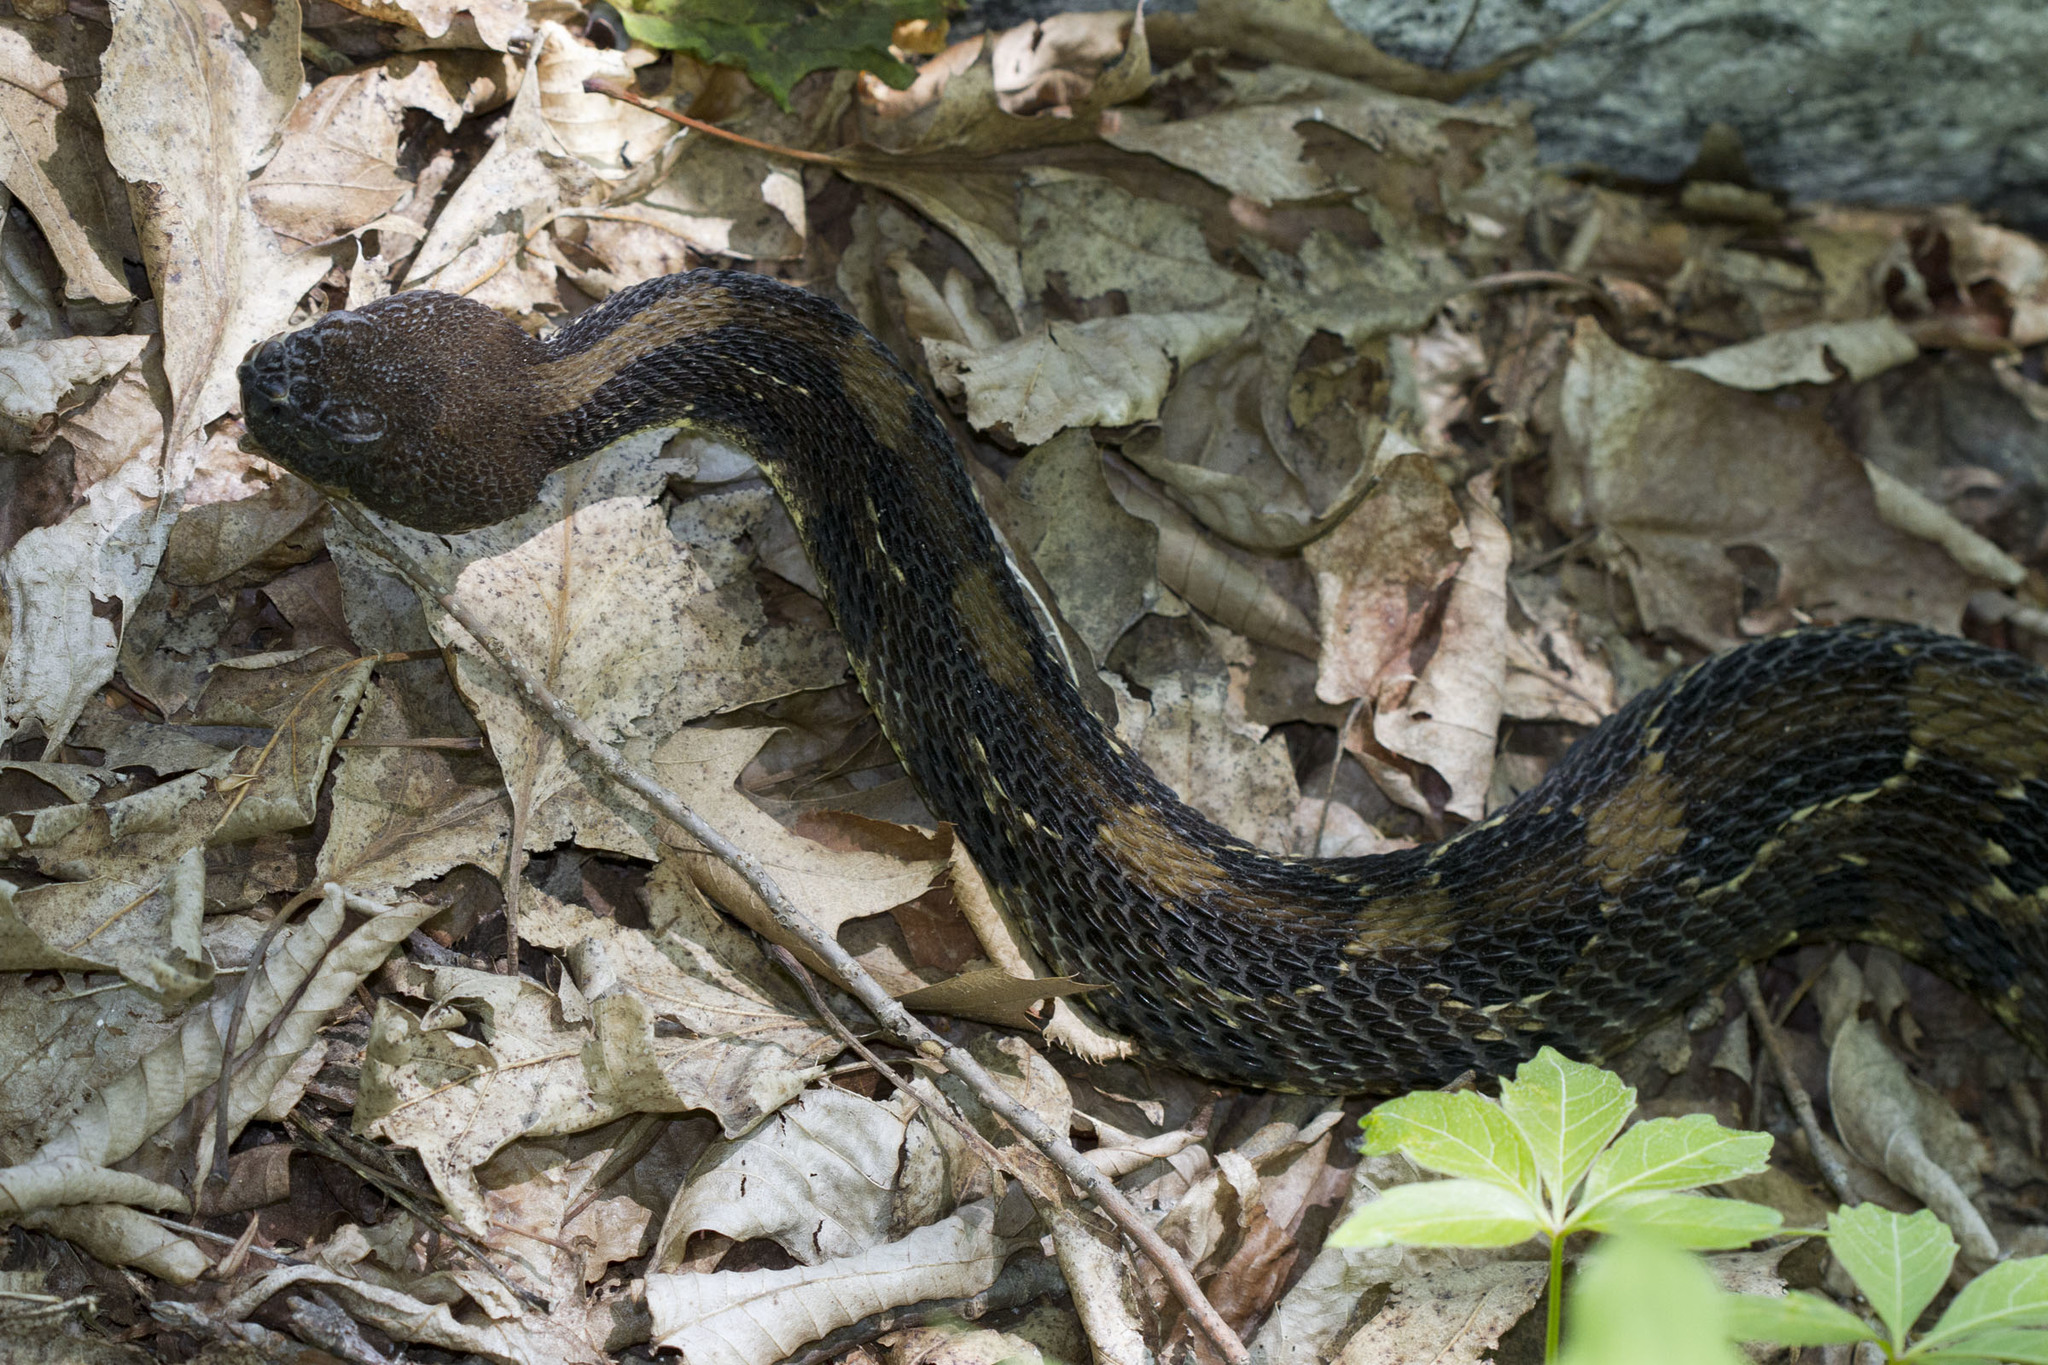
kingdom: Animalia
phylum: Chordata
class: Squamata
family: Viperidae
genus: Crotalus
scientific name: Crotalus horridus
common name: Timber rattlesnake
